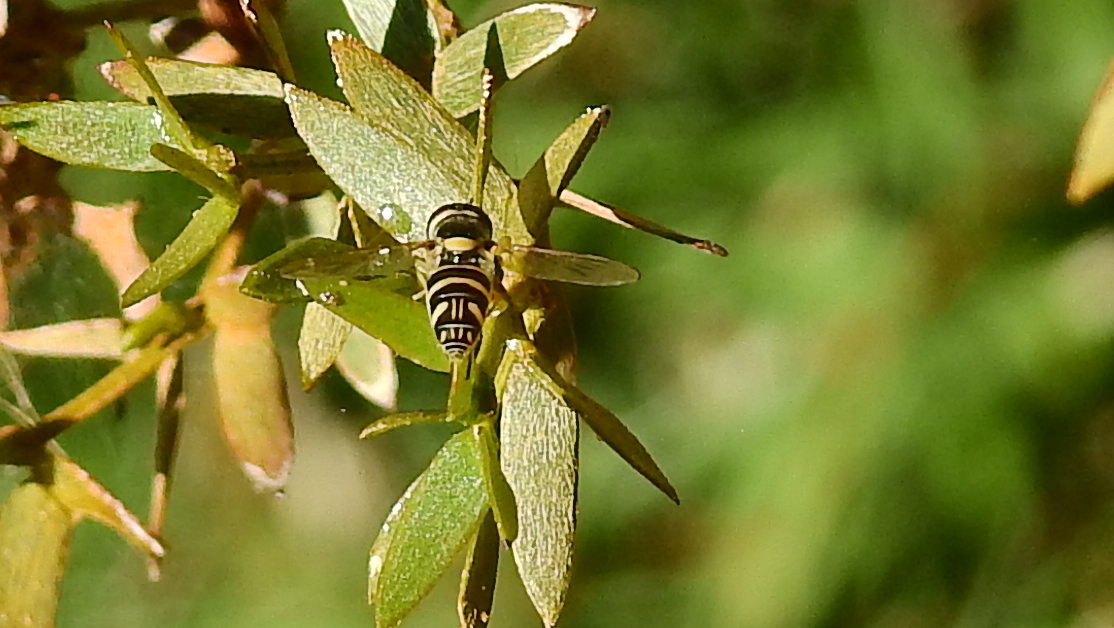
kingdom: Animalia
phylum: Arthropoda
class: Insecta
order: Diptera
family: Syrphidae
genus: Allograpta
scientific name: Allograpta
